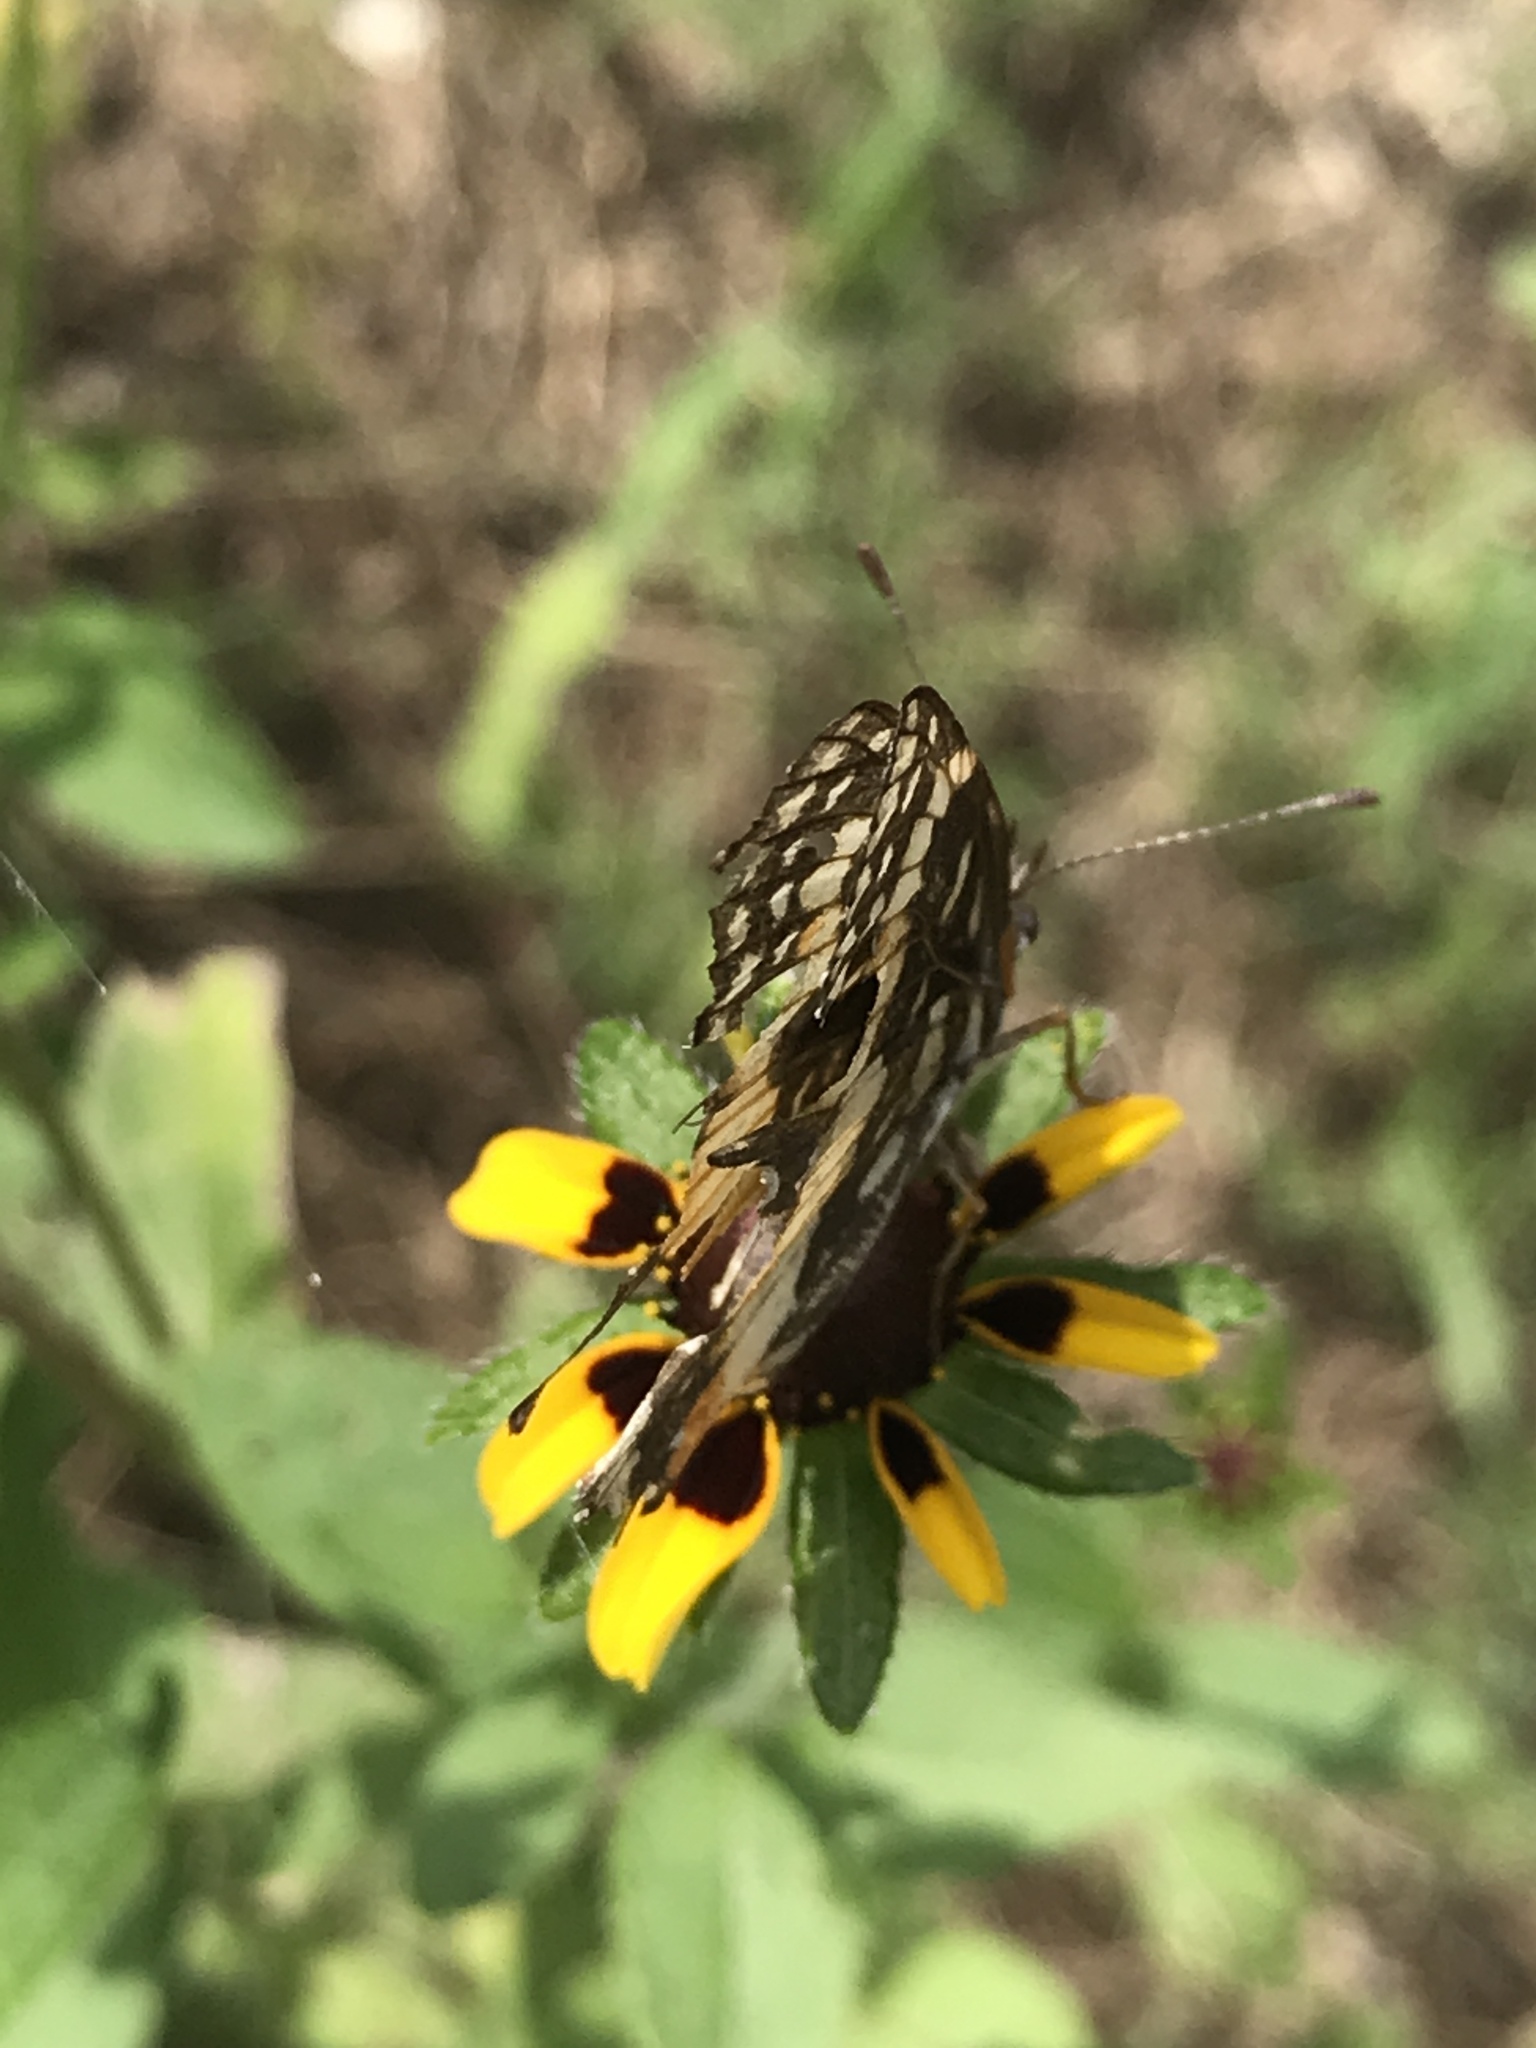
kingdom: Animalia
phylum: Arthropoda
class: Insecta
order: Lepidoptera
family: Nymphalidae
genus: Chlosyne
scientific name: Chlosyne lacinia
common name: Bordered patch
